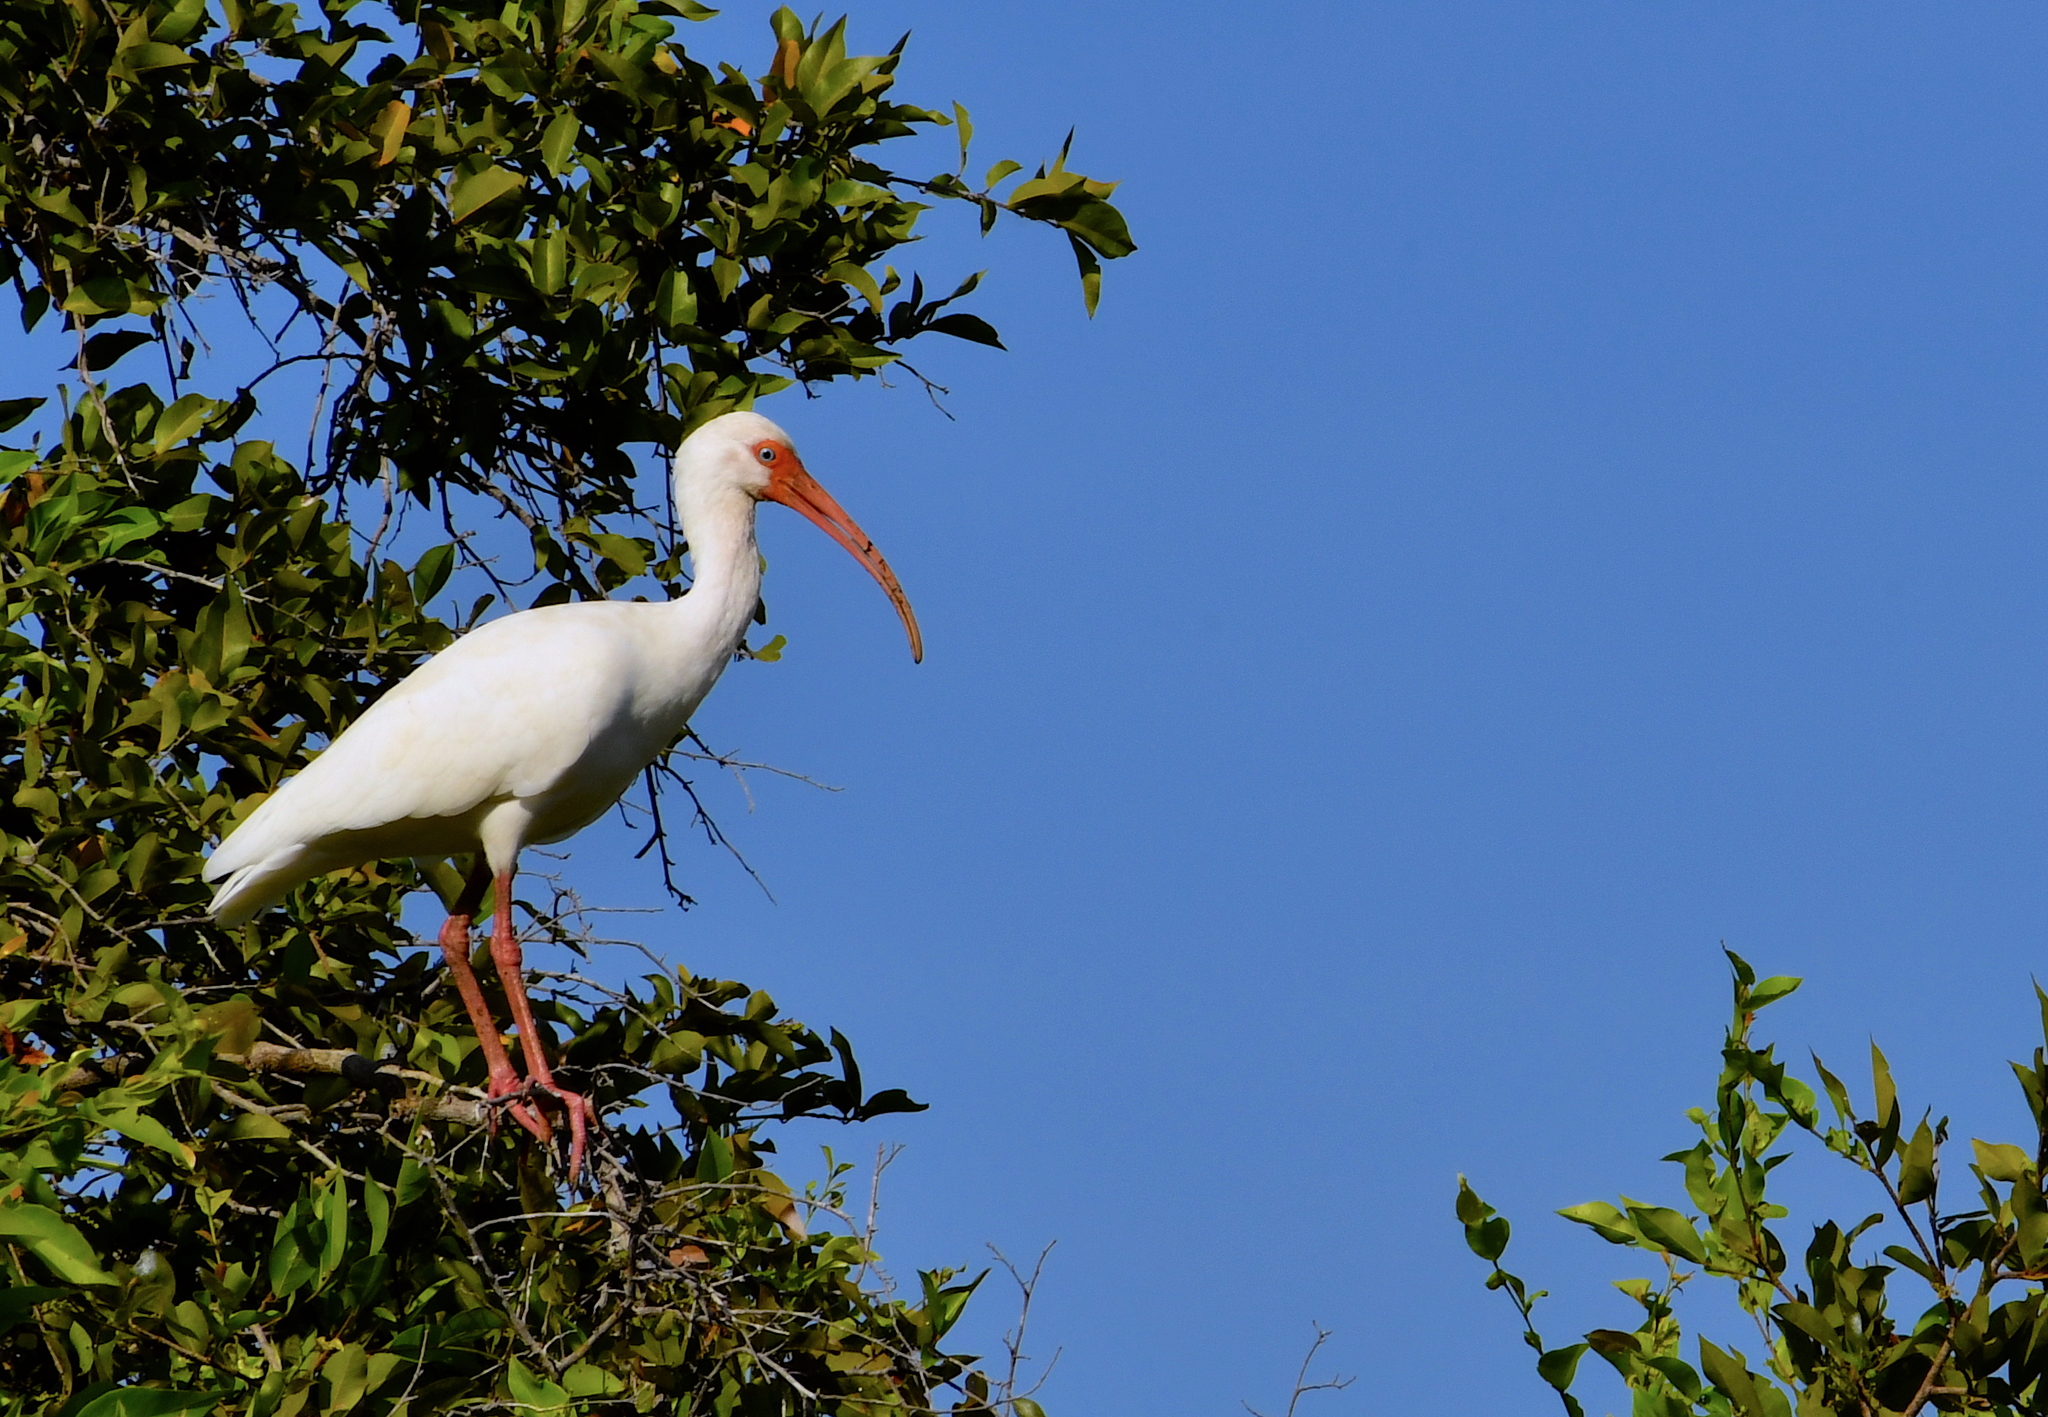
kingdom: Animalia
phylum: Chordata
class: Aves
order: Pelecaniformes
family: Threskiornithidae
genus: Eudocimus
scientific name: Eudocimus albus
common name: White ibis
